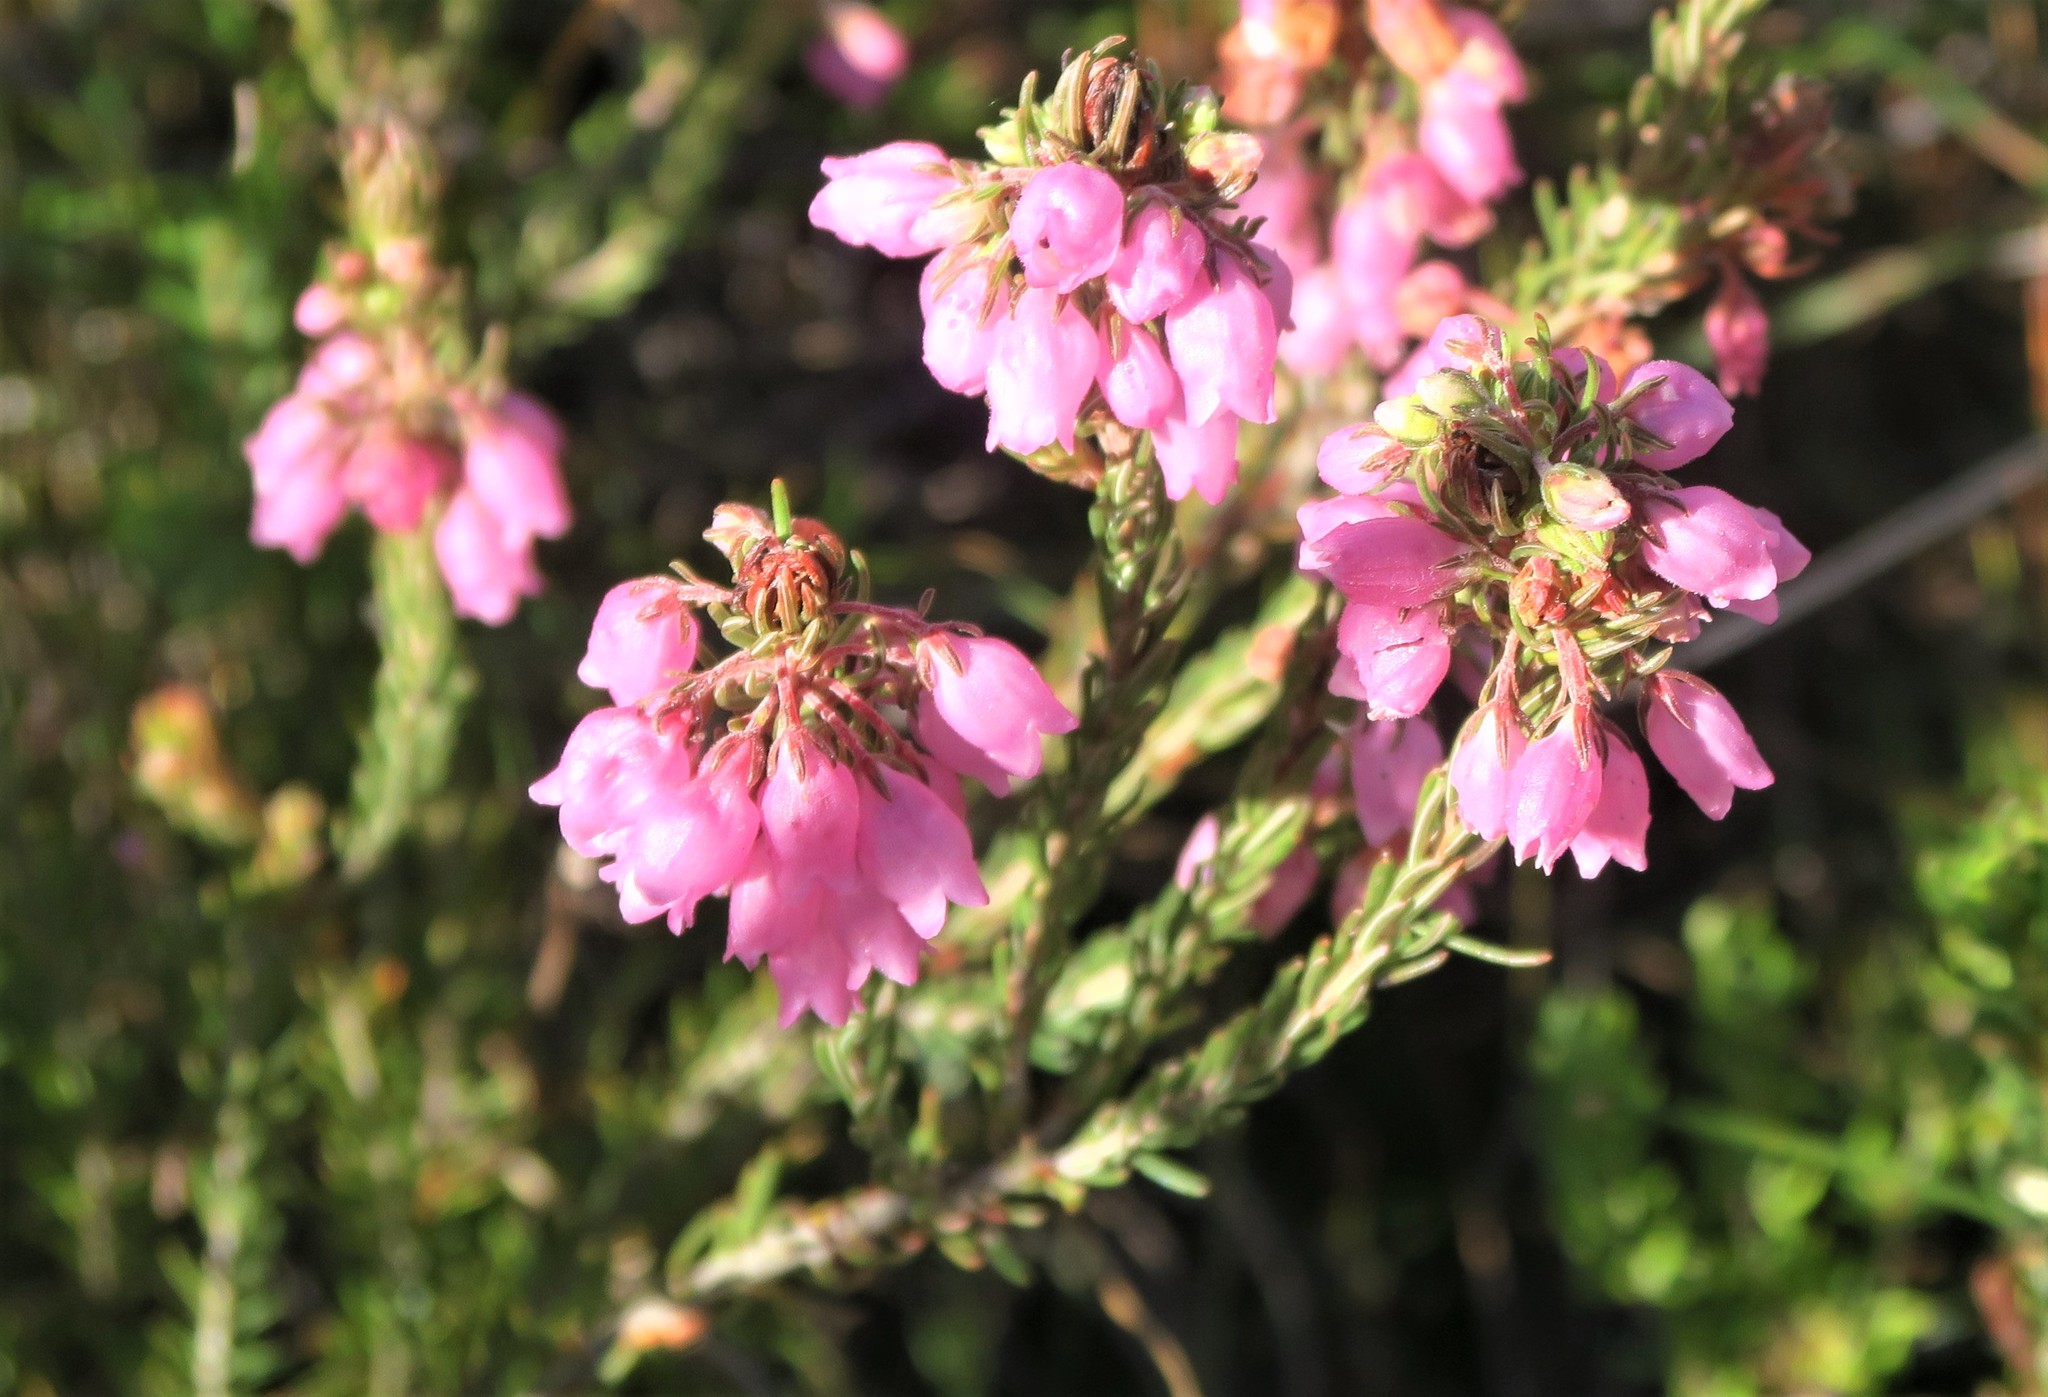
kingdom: Plantae
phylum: Tracheophyta
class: Magnoliopsida
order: Ericales
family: Ericaceae
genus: Erica
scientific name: Erica viscaria
